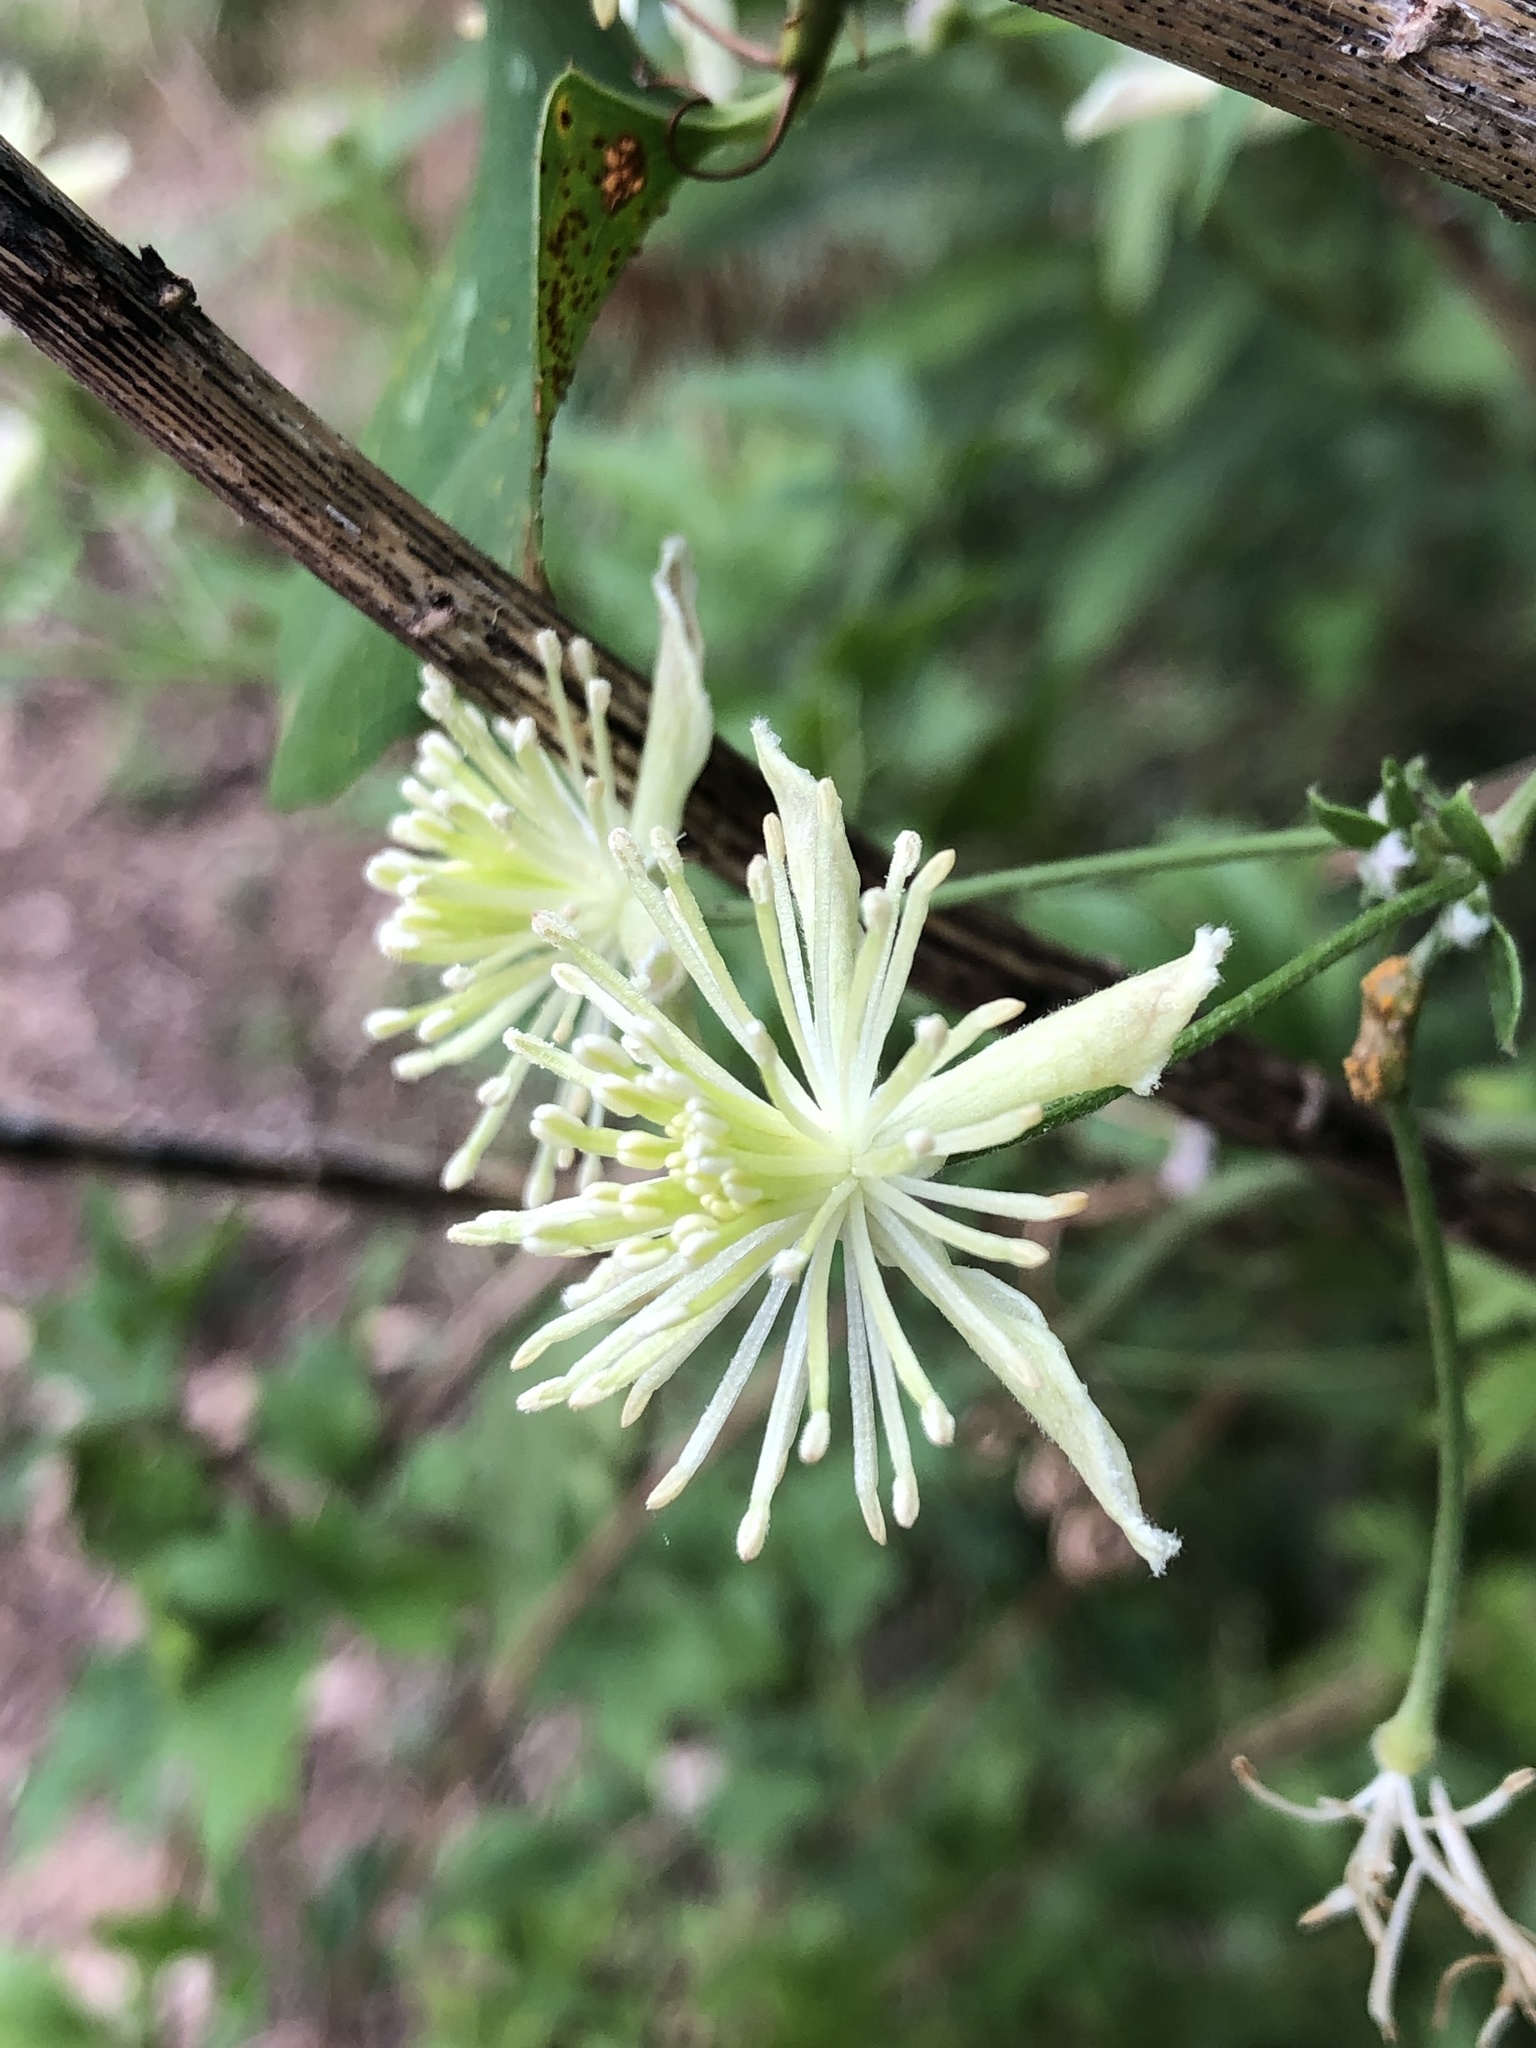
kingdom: Plantae
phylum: Tracheophyta
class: Magnoliopsida
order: Ranunculales
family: Ranunculaceae
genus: Clematis
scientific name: Clematis drummondii
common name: Texas virgin's bower
